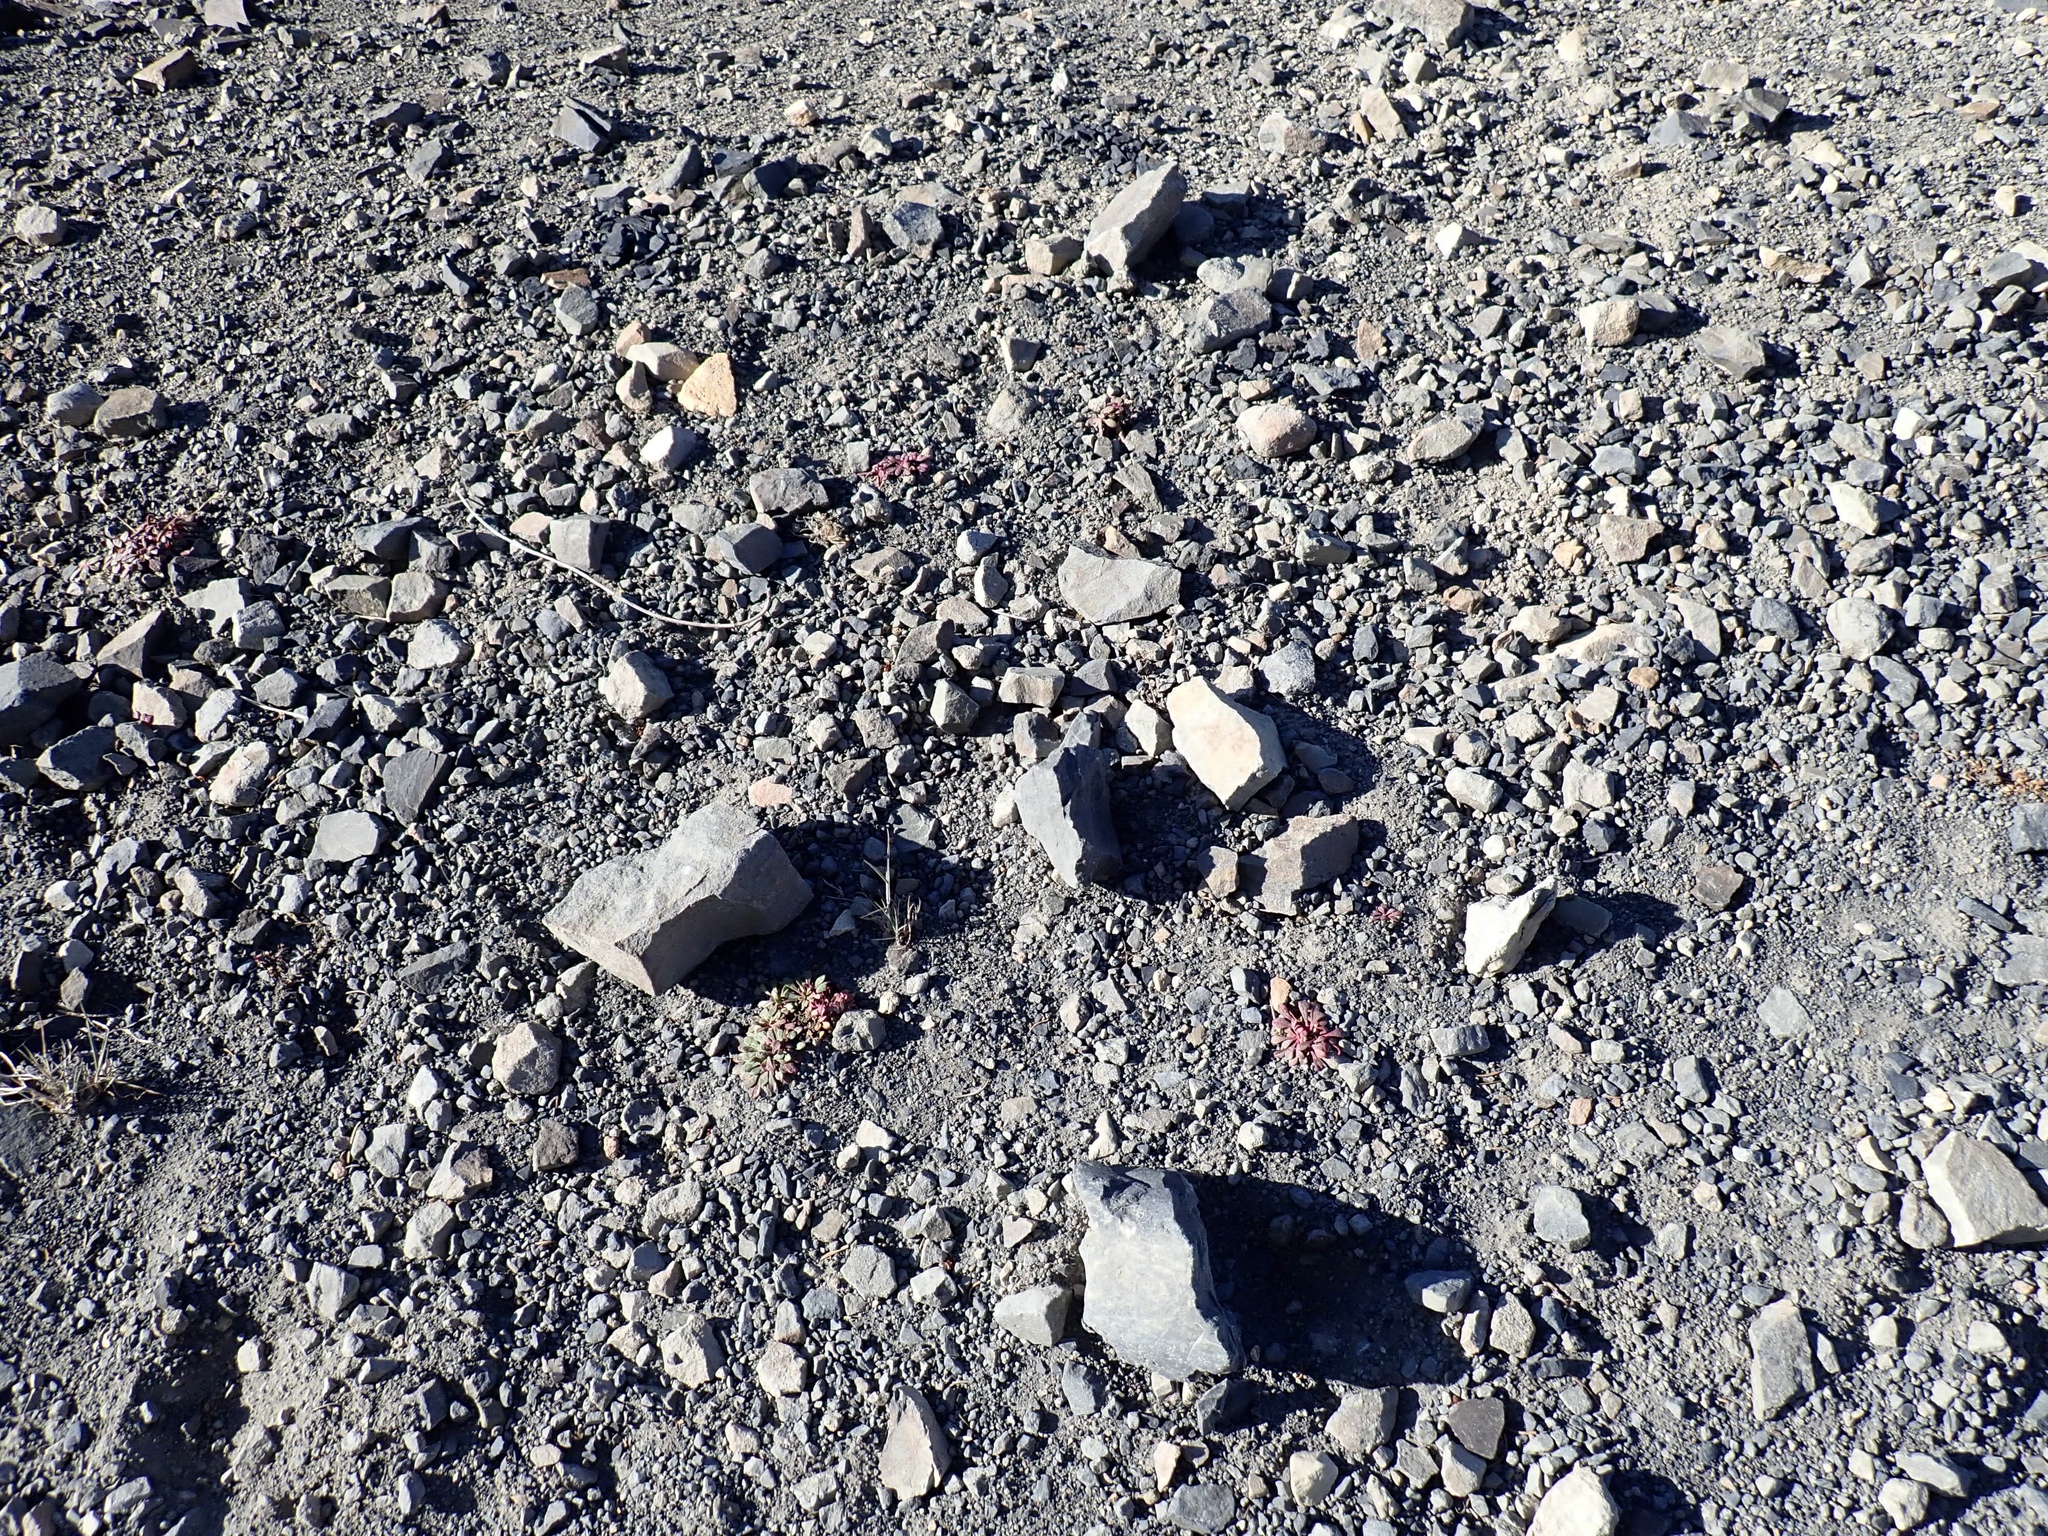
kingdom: Plantae
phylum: Tracheophyta
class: Magnoliopsida
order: Caryophyllales
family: Montiaceae
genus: Calyptridium
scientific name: Calyptridium umbellatum
